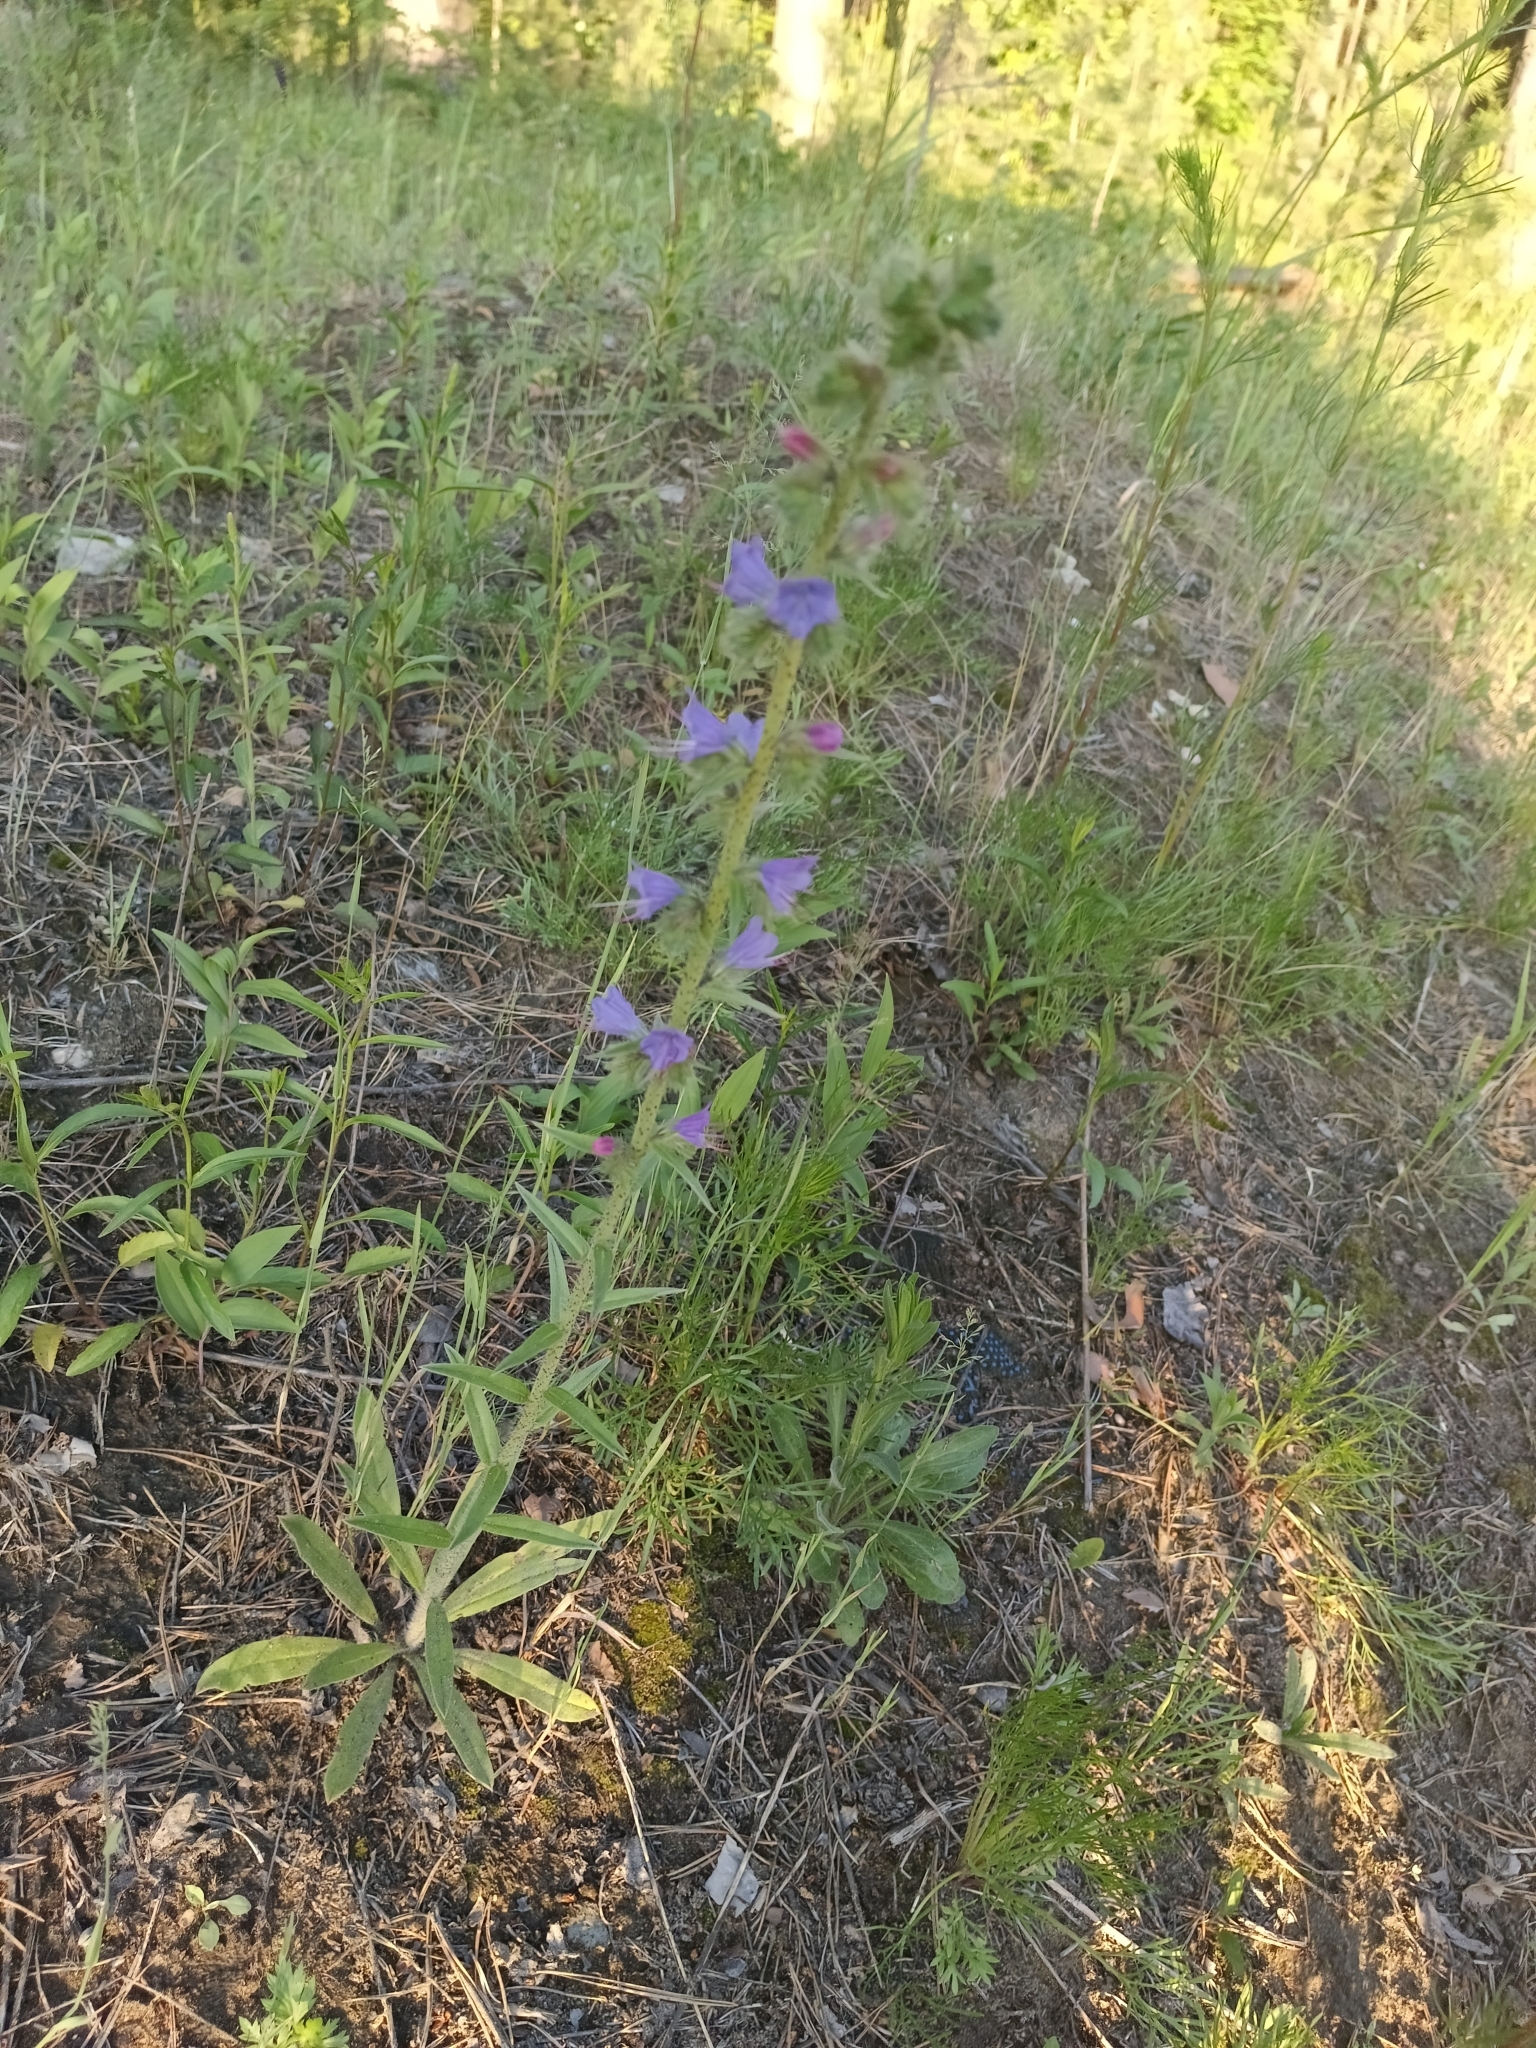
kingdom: Plantae
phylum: Tracheophyta
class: Magnoliopsida
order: Boraginales
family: Boraginaceae
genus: Echium
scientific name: Echium vulgare
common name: Common viper's bugloss
